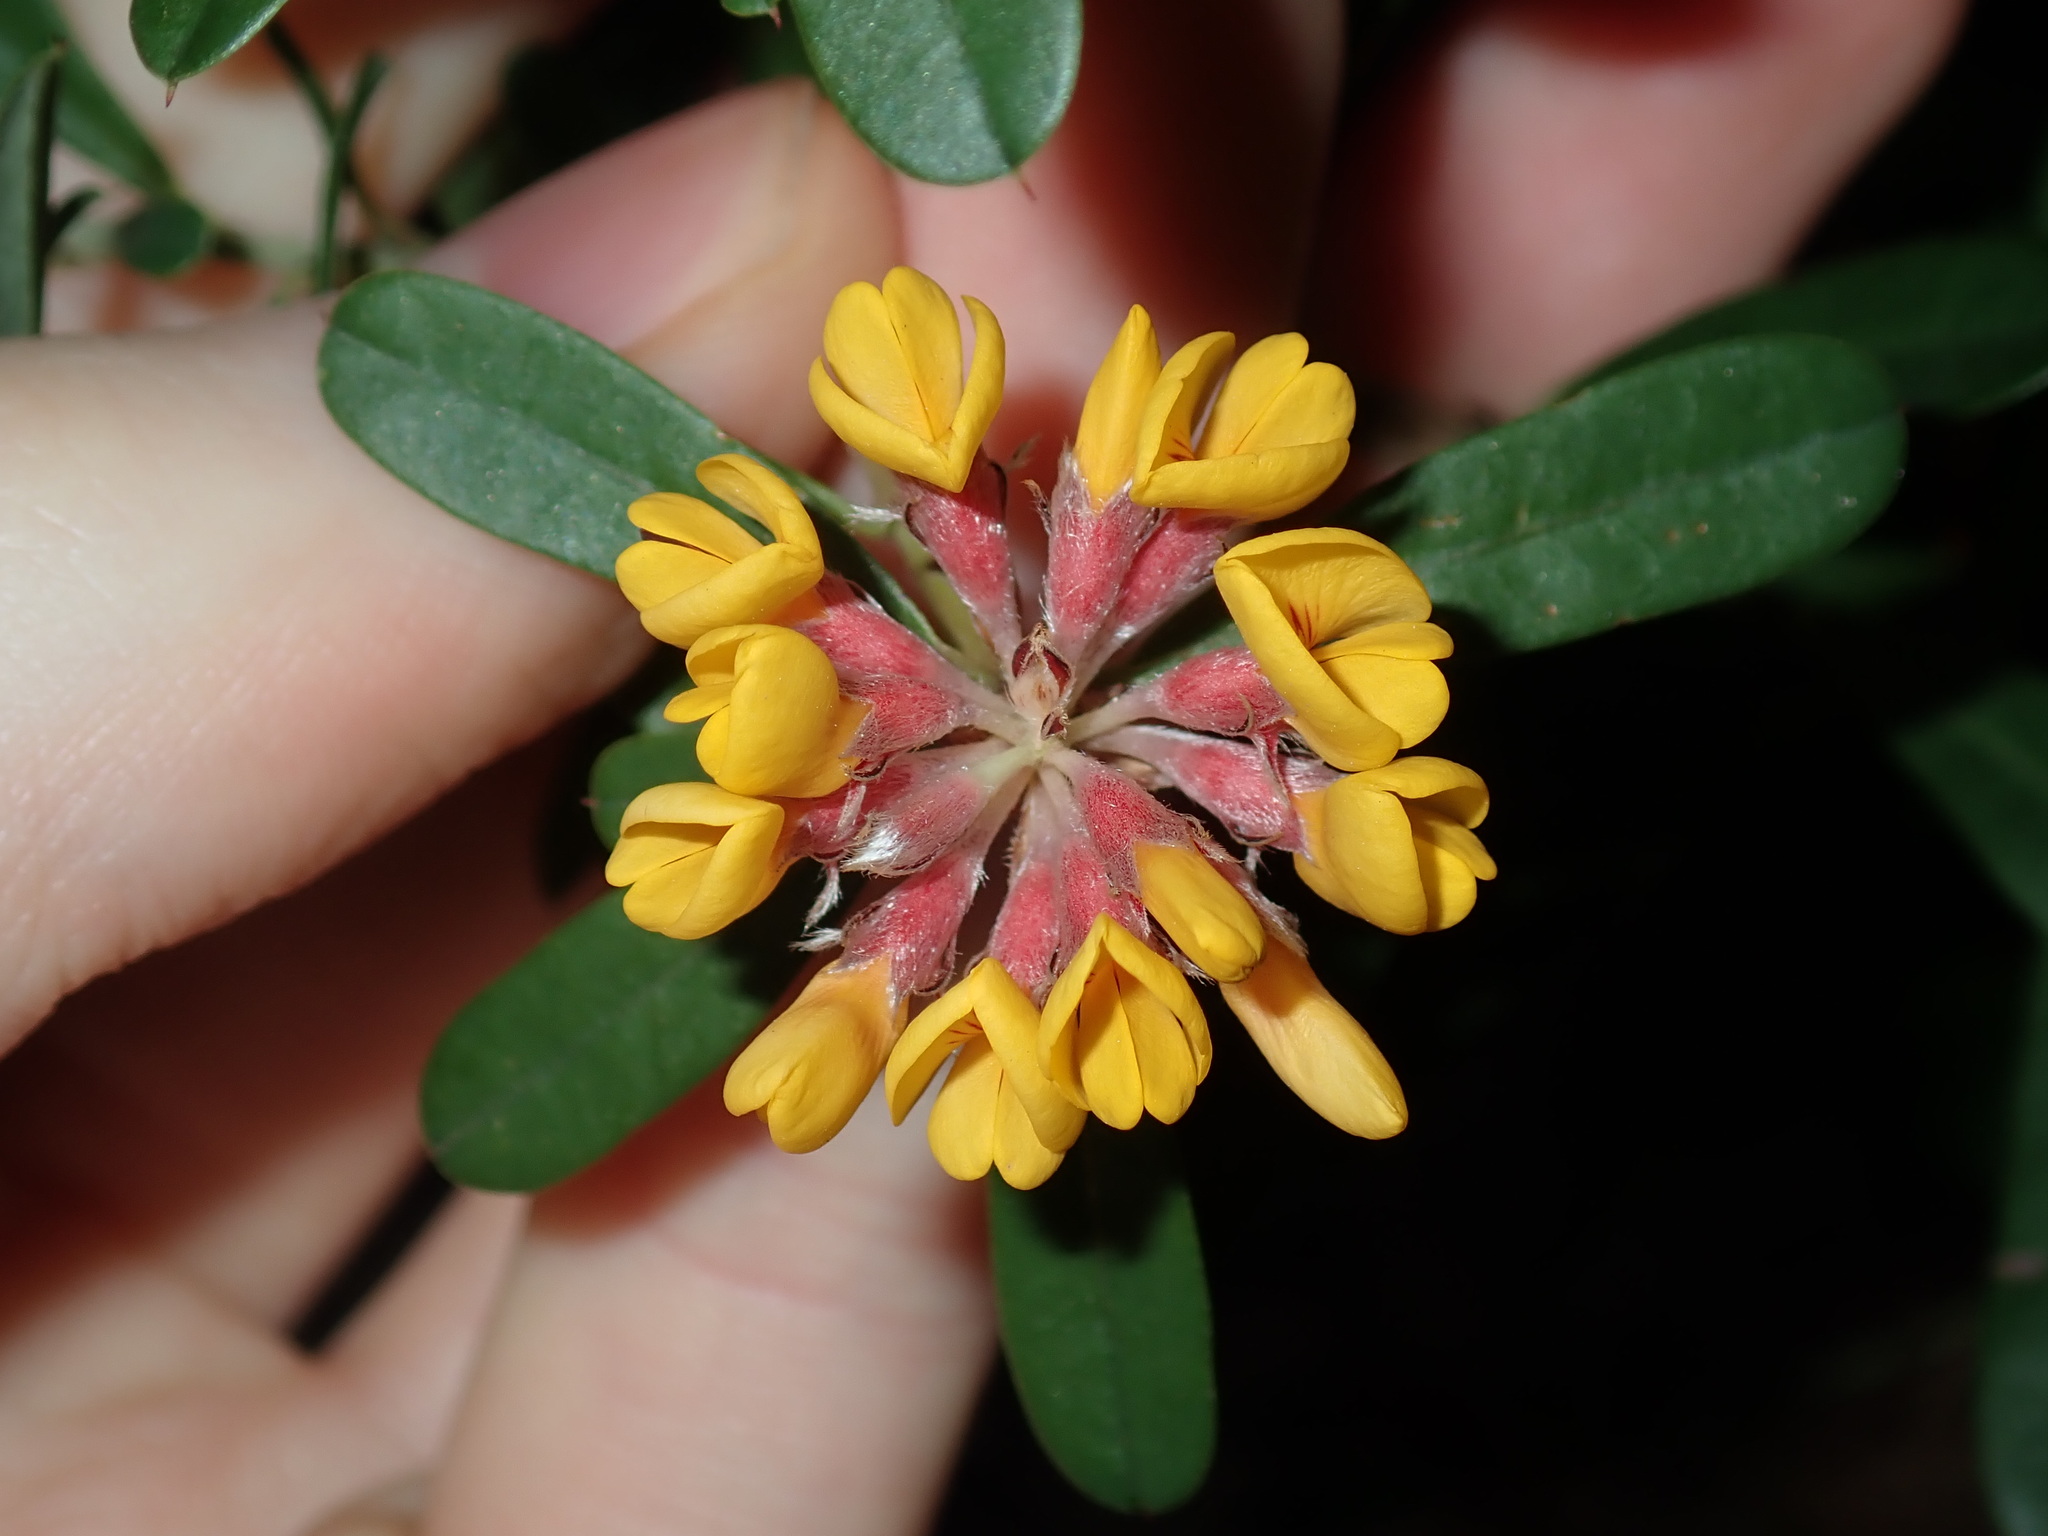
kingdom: Plantae
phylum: Tracheophyta
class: Magnoliopsida
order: Fabales
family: Fabaceae
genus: Pultenaea
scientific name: Pultenaea daphnoides
